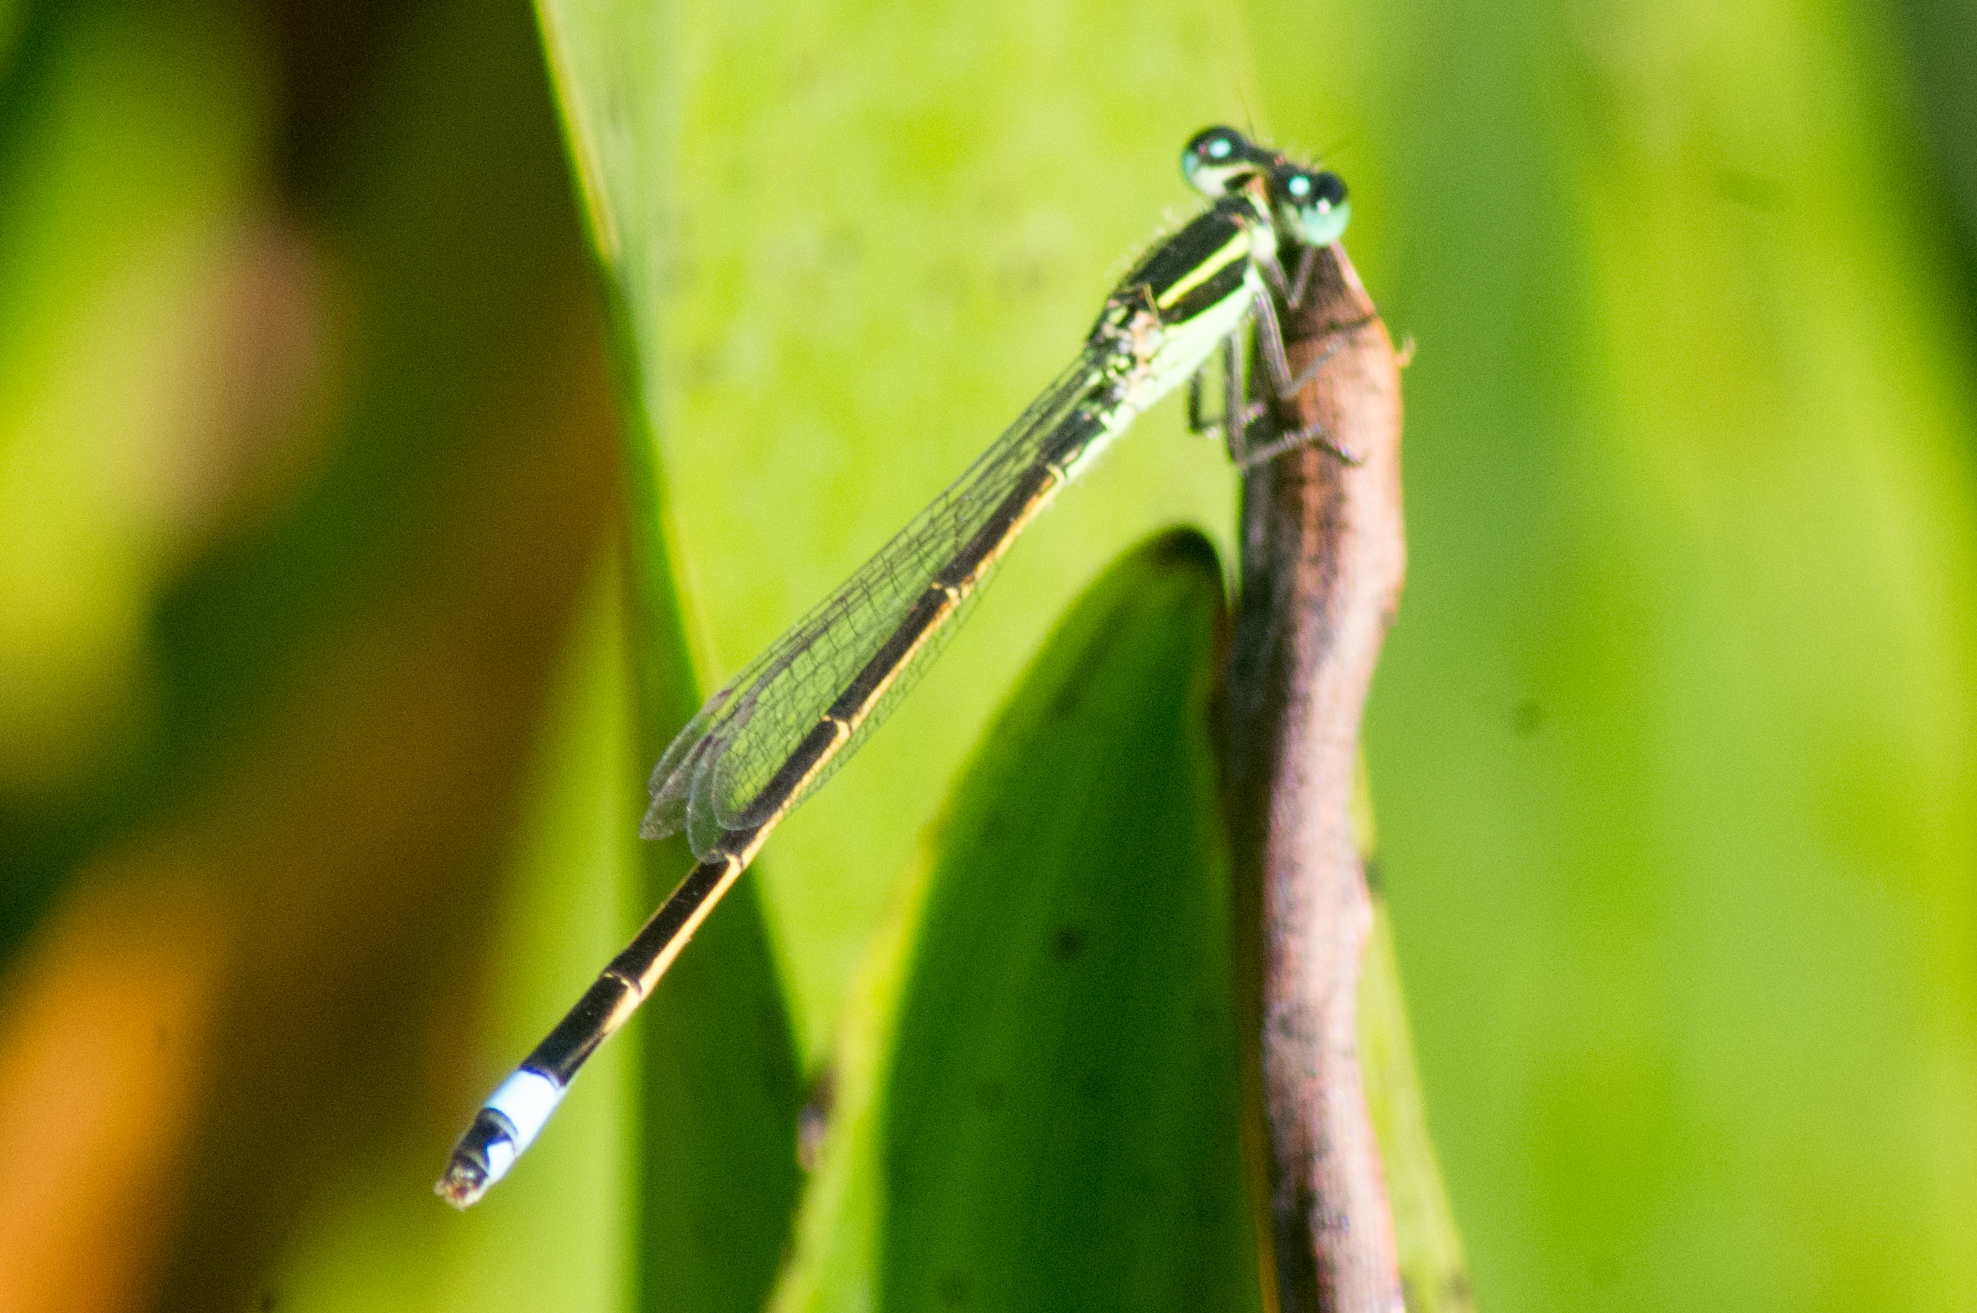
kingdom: Animalia
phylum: Arthropoda
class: Insecta
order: Odonata
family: Coenagrionidae
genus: Ischnura
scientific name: Ischnura ramburii
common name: Rambur's forktail
